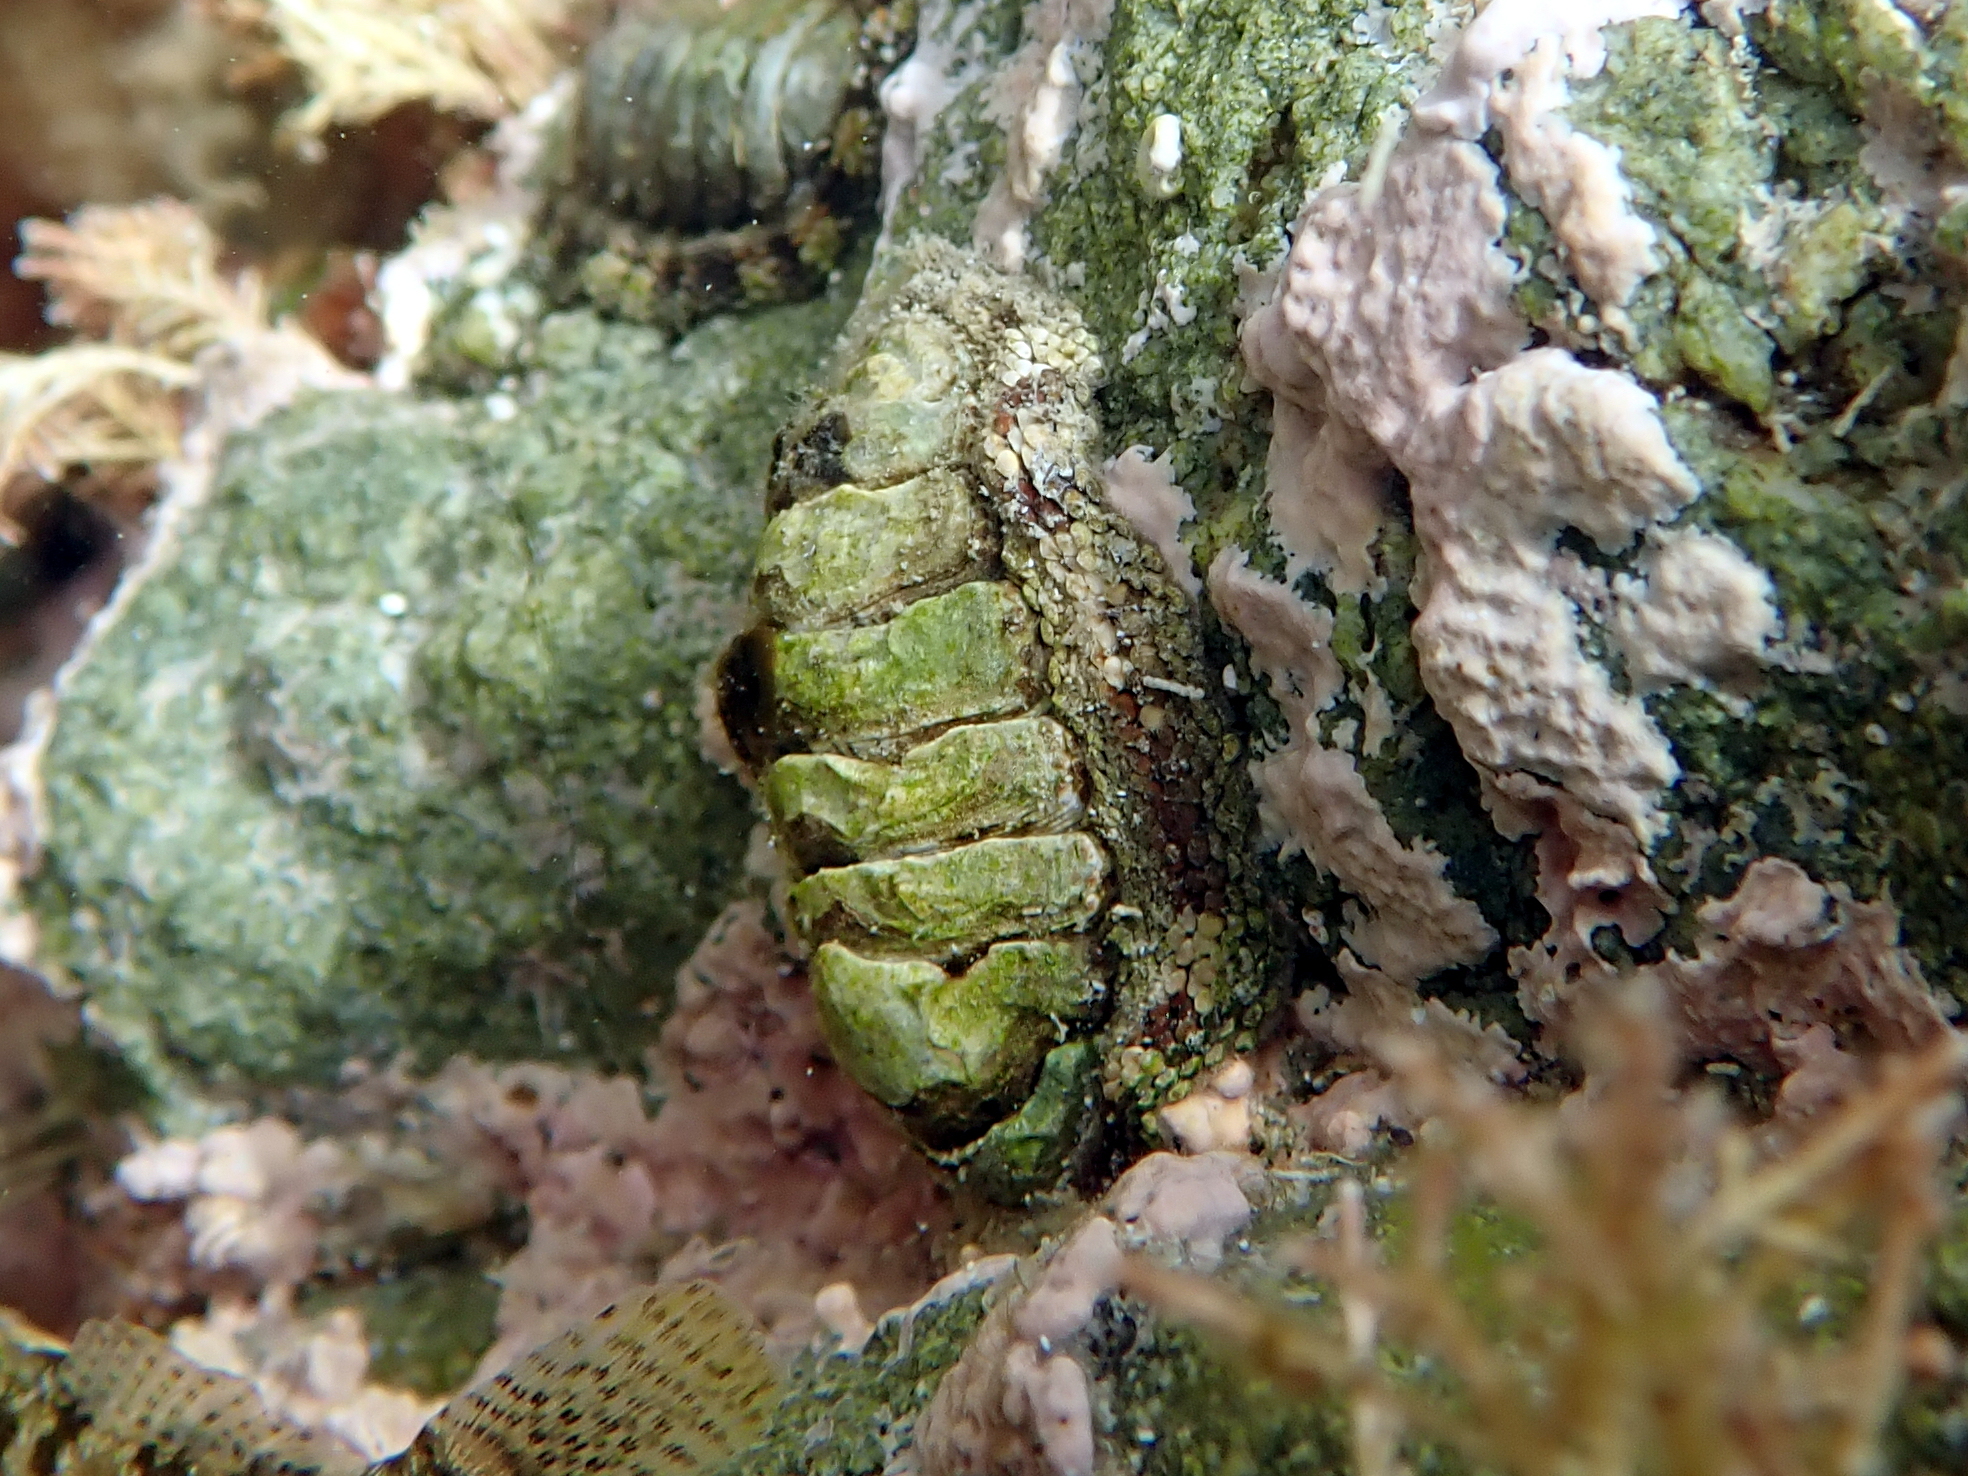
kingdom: Animalia
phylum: Mollusca
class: Polyplacophora
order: Chitonida
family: Chitonidae
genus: Sypharochiton
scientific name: Sypharochiton pelliserpentis
